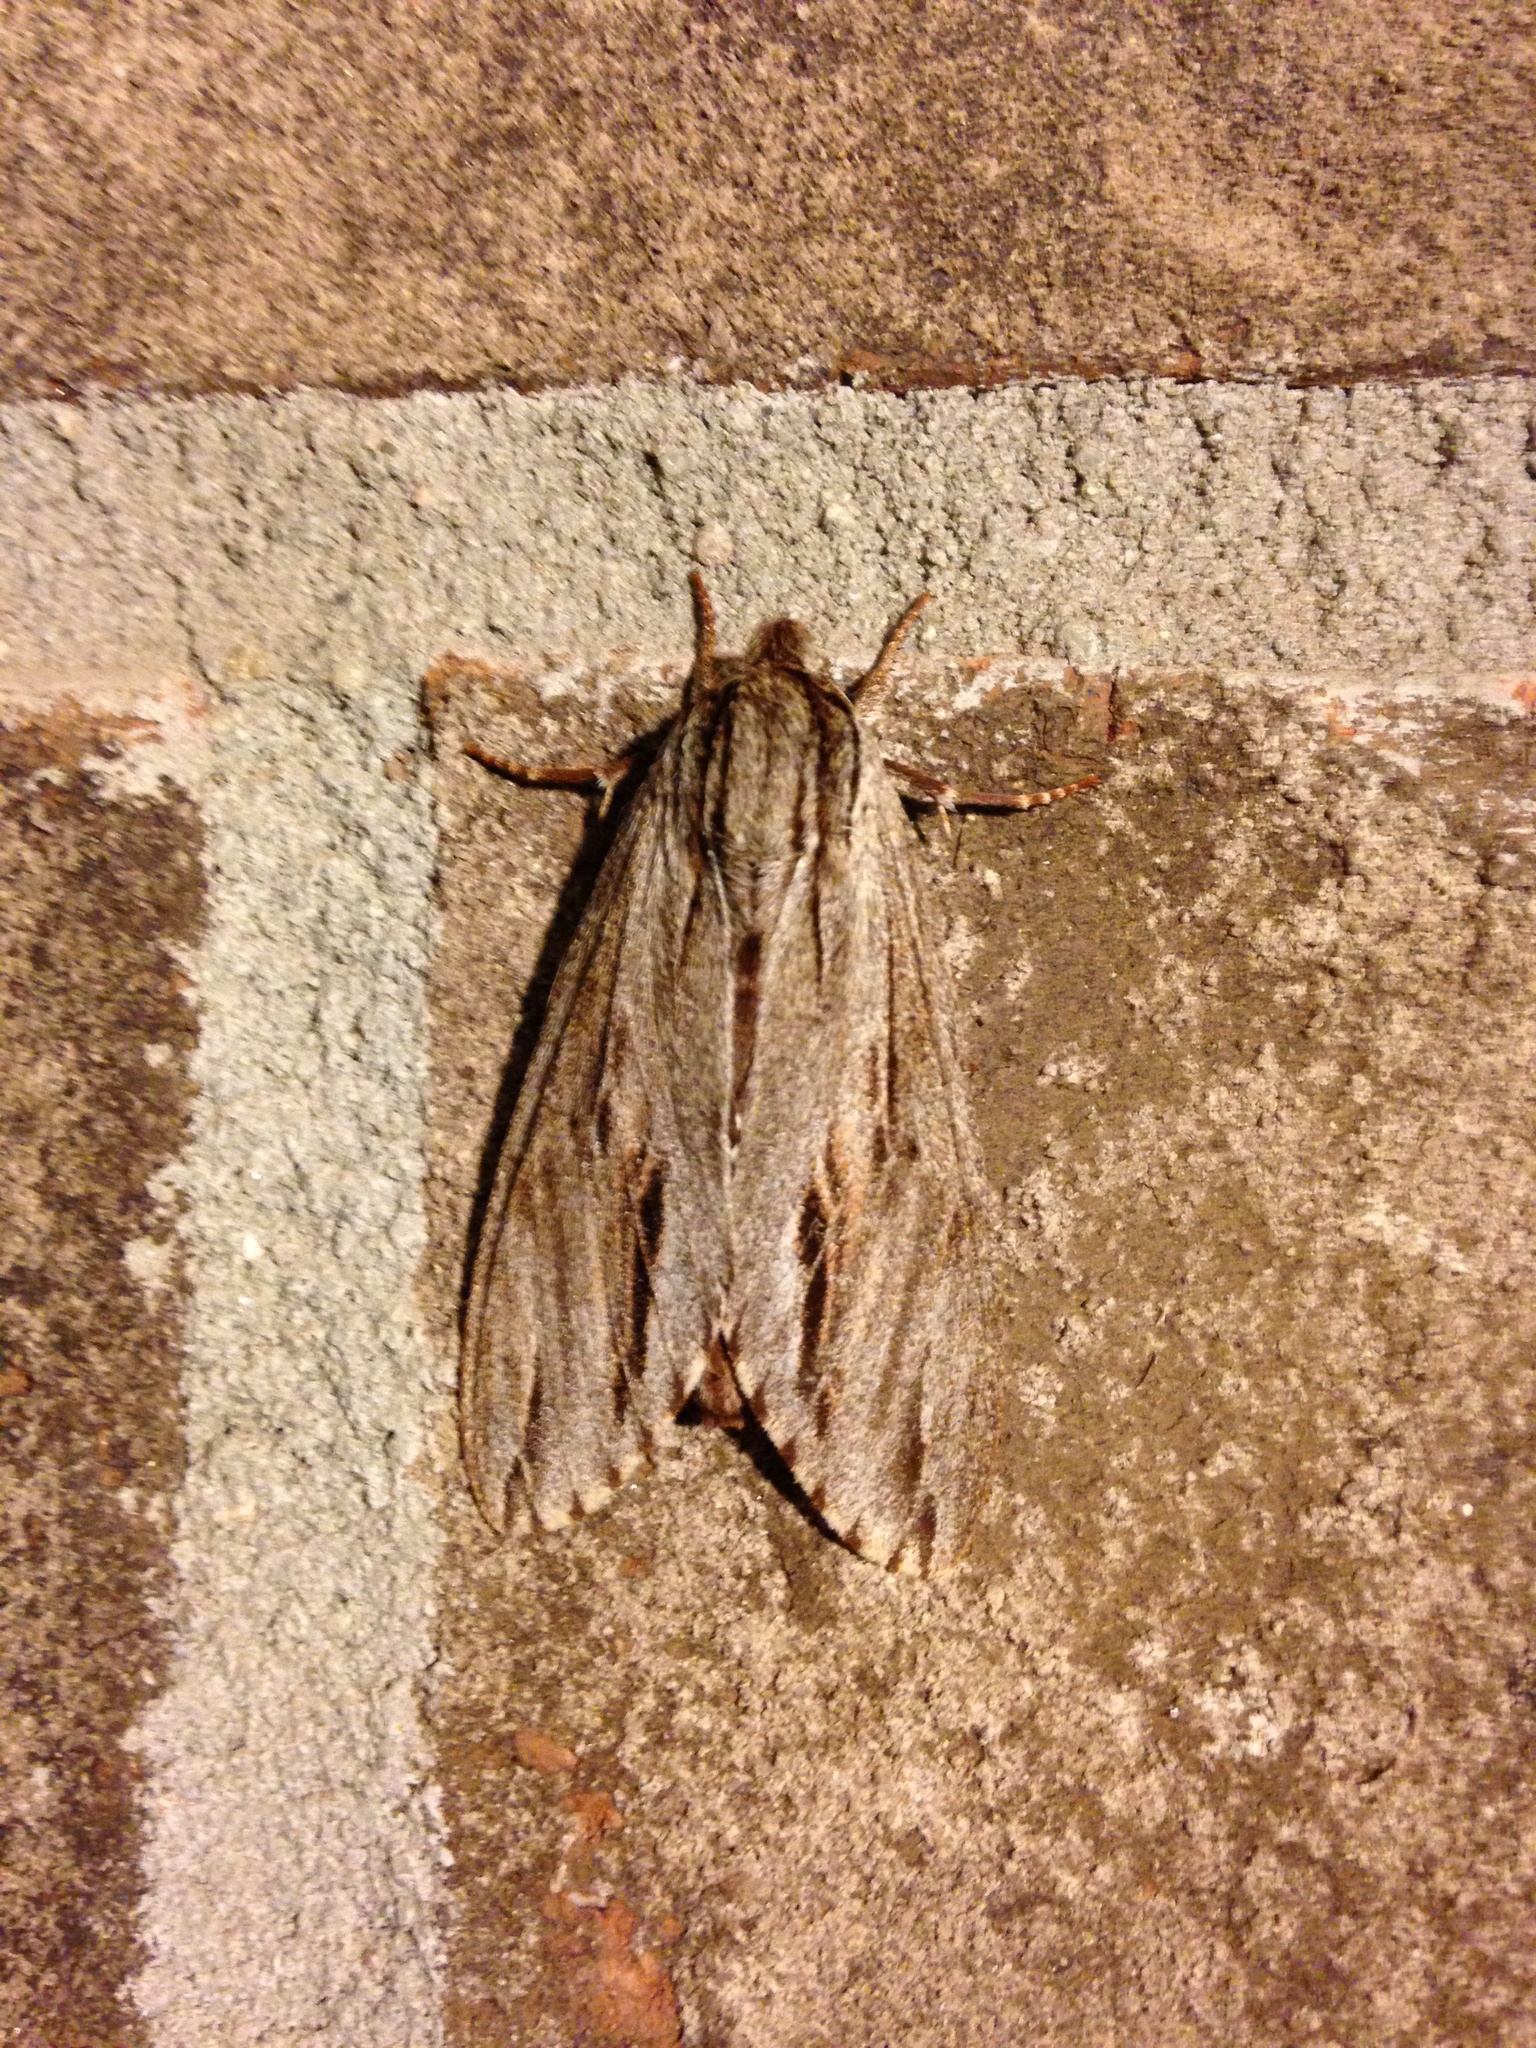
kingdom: Animalia
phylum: Arthropoda
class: Insecta
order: Lepidoptera
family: Sphingidae
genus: Isoparce
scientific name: Isoparce cupressi
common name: Cypress sphinx
